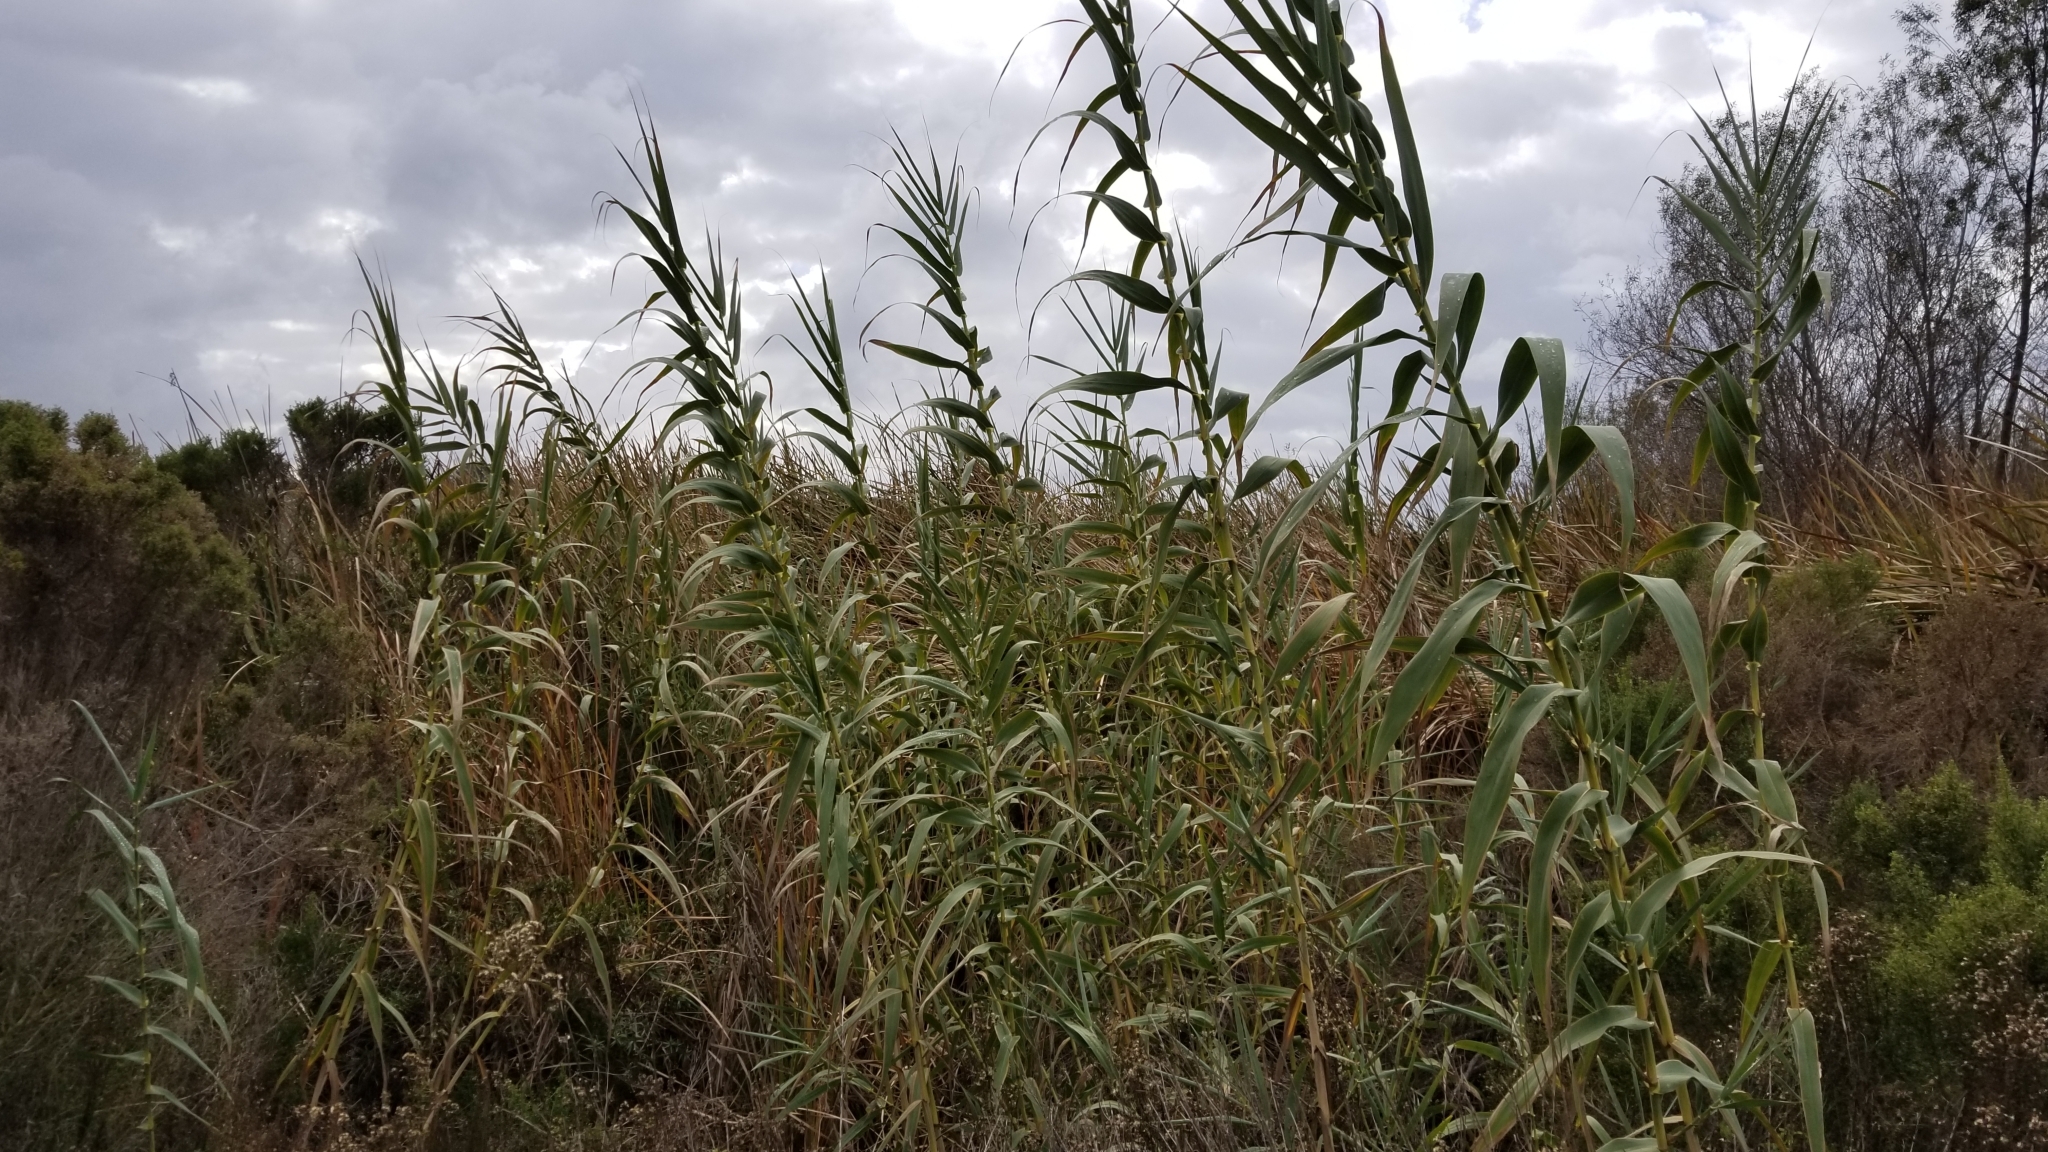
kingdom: Plantae
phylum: Tracheophyta
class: Liliopsida
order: Poales
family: Poaceae
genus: Arundo
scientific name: Arundo donax
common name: Giant reed
